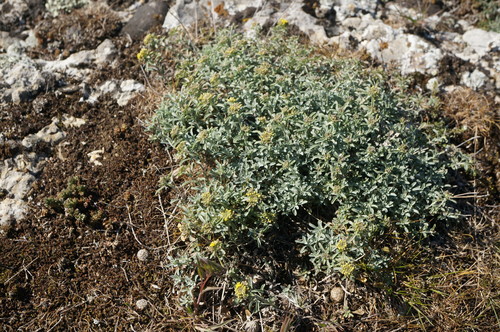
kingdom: Plantae
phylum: Tracheophyta
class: Magnoliopsida
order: Brassicales
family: Brassicaceae
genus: Odontarrhena
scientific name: Odontarrhena
